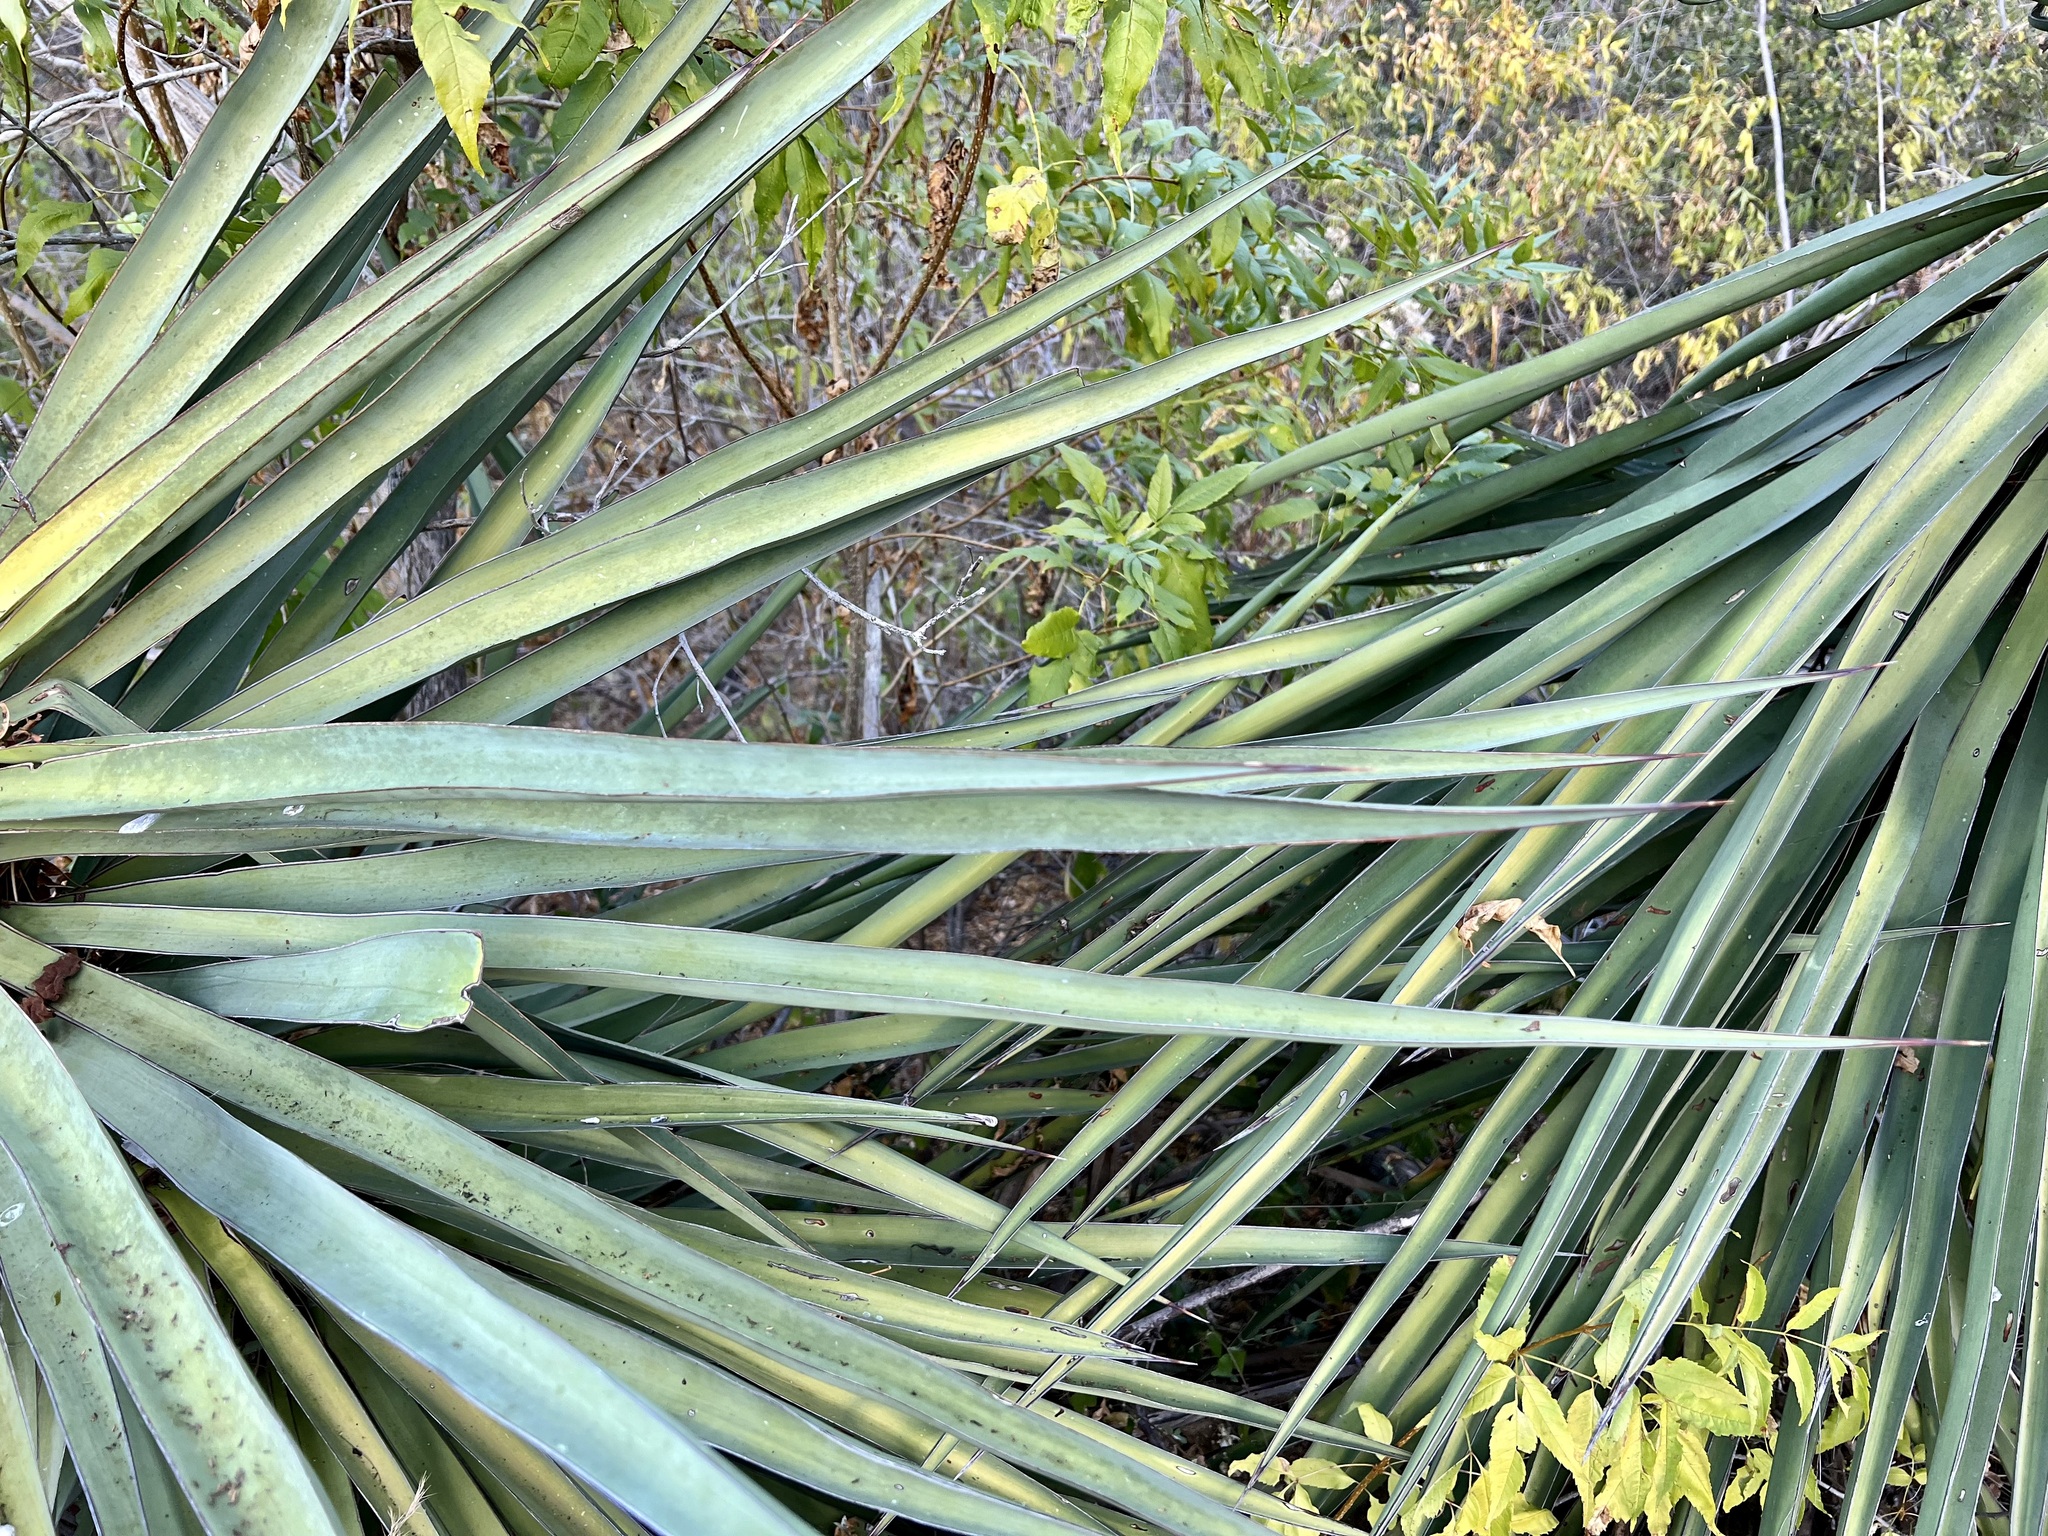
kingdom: Plantae
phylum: Tracheophyta
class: Liliopsida
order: Asparagales
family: Asparagaceae
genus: Yucca
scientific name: Yucca capensis
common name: Cape region yucca
